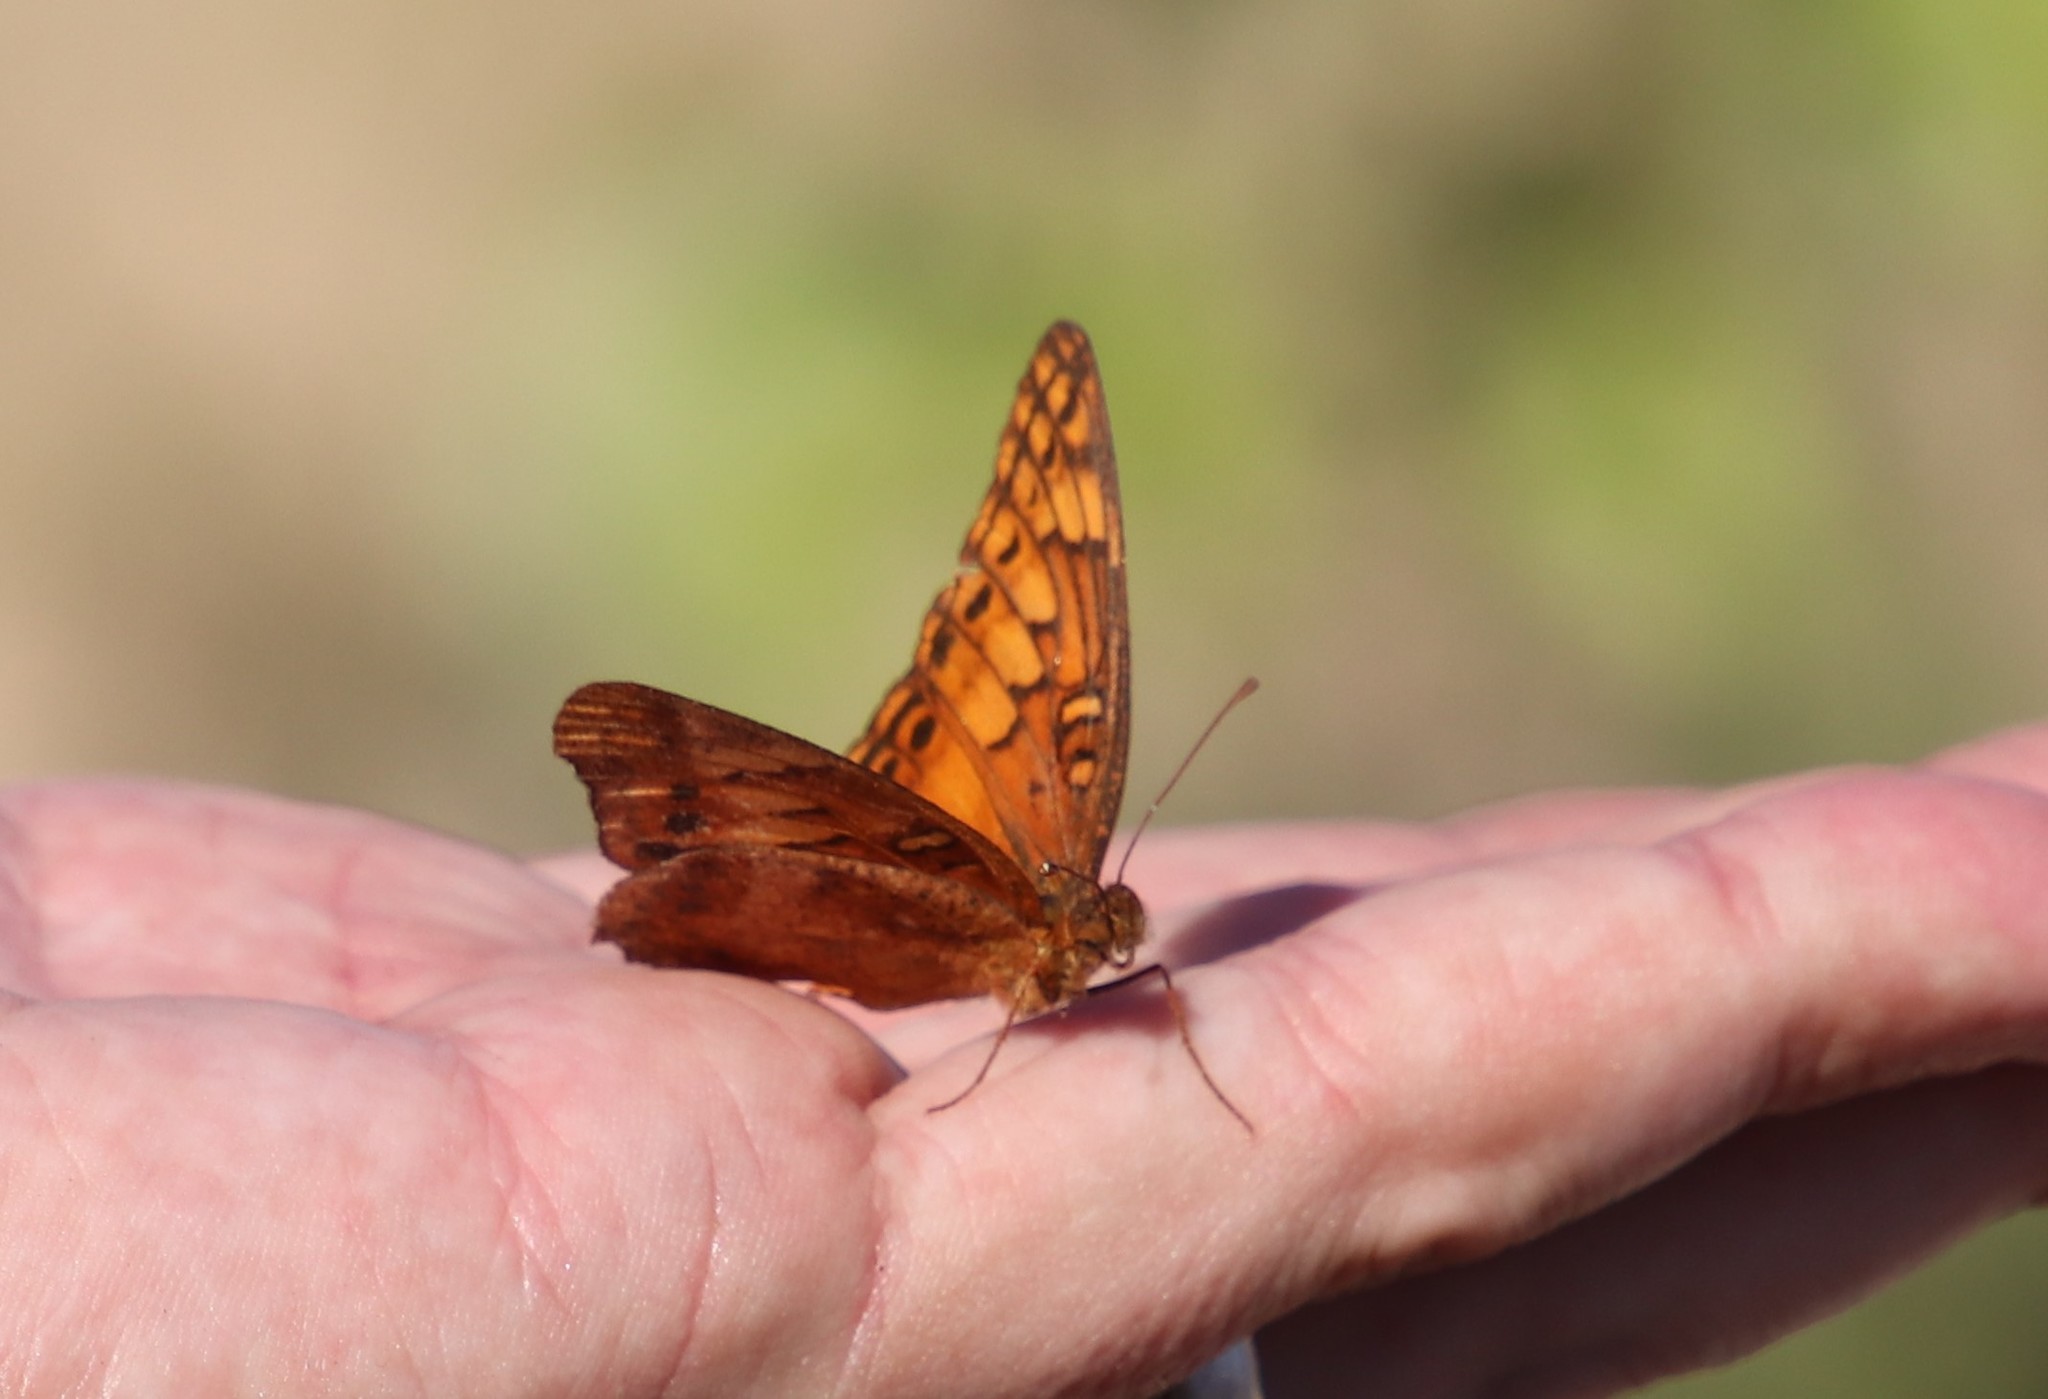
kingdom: Animalia
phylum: Arthropoda
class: Insecta
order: Lepidoptera
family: Nymphalidae
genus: Euptoieta
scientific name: Euptoieta hegesia
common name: Mexican fritillary
